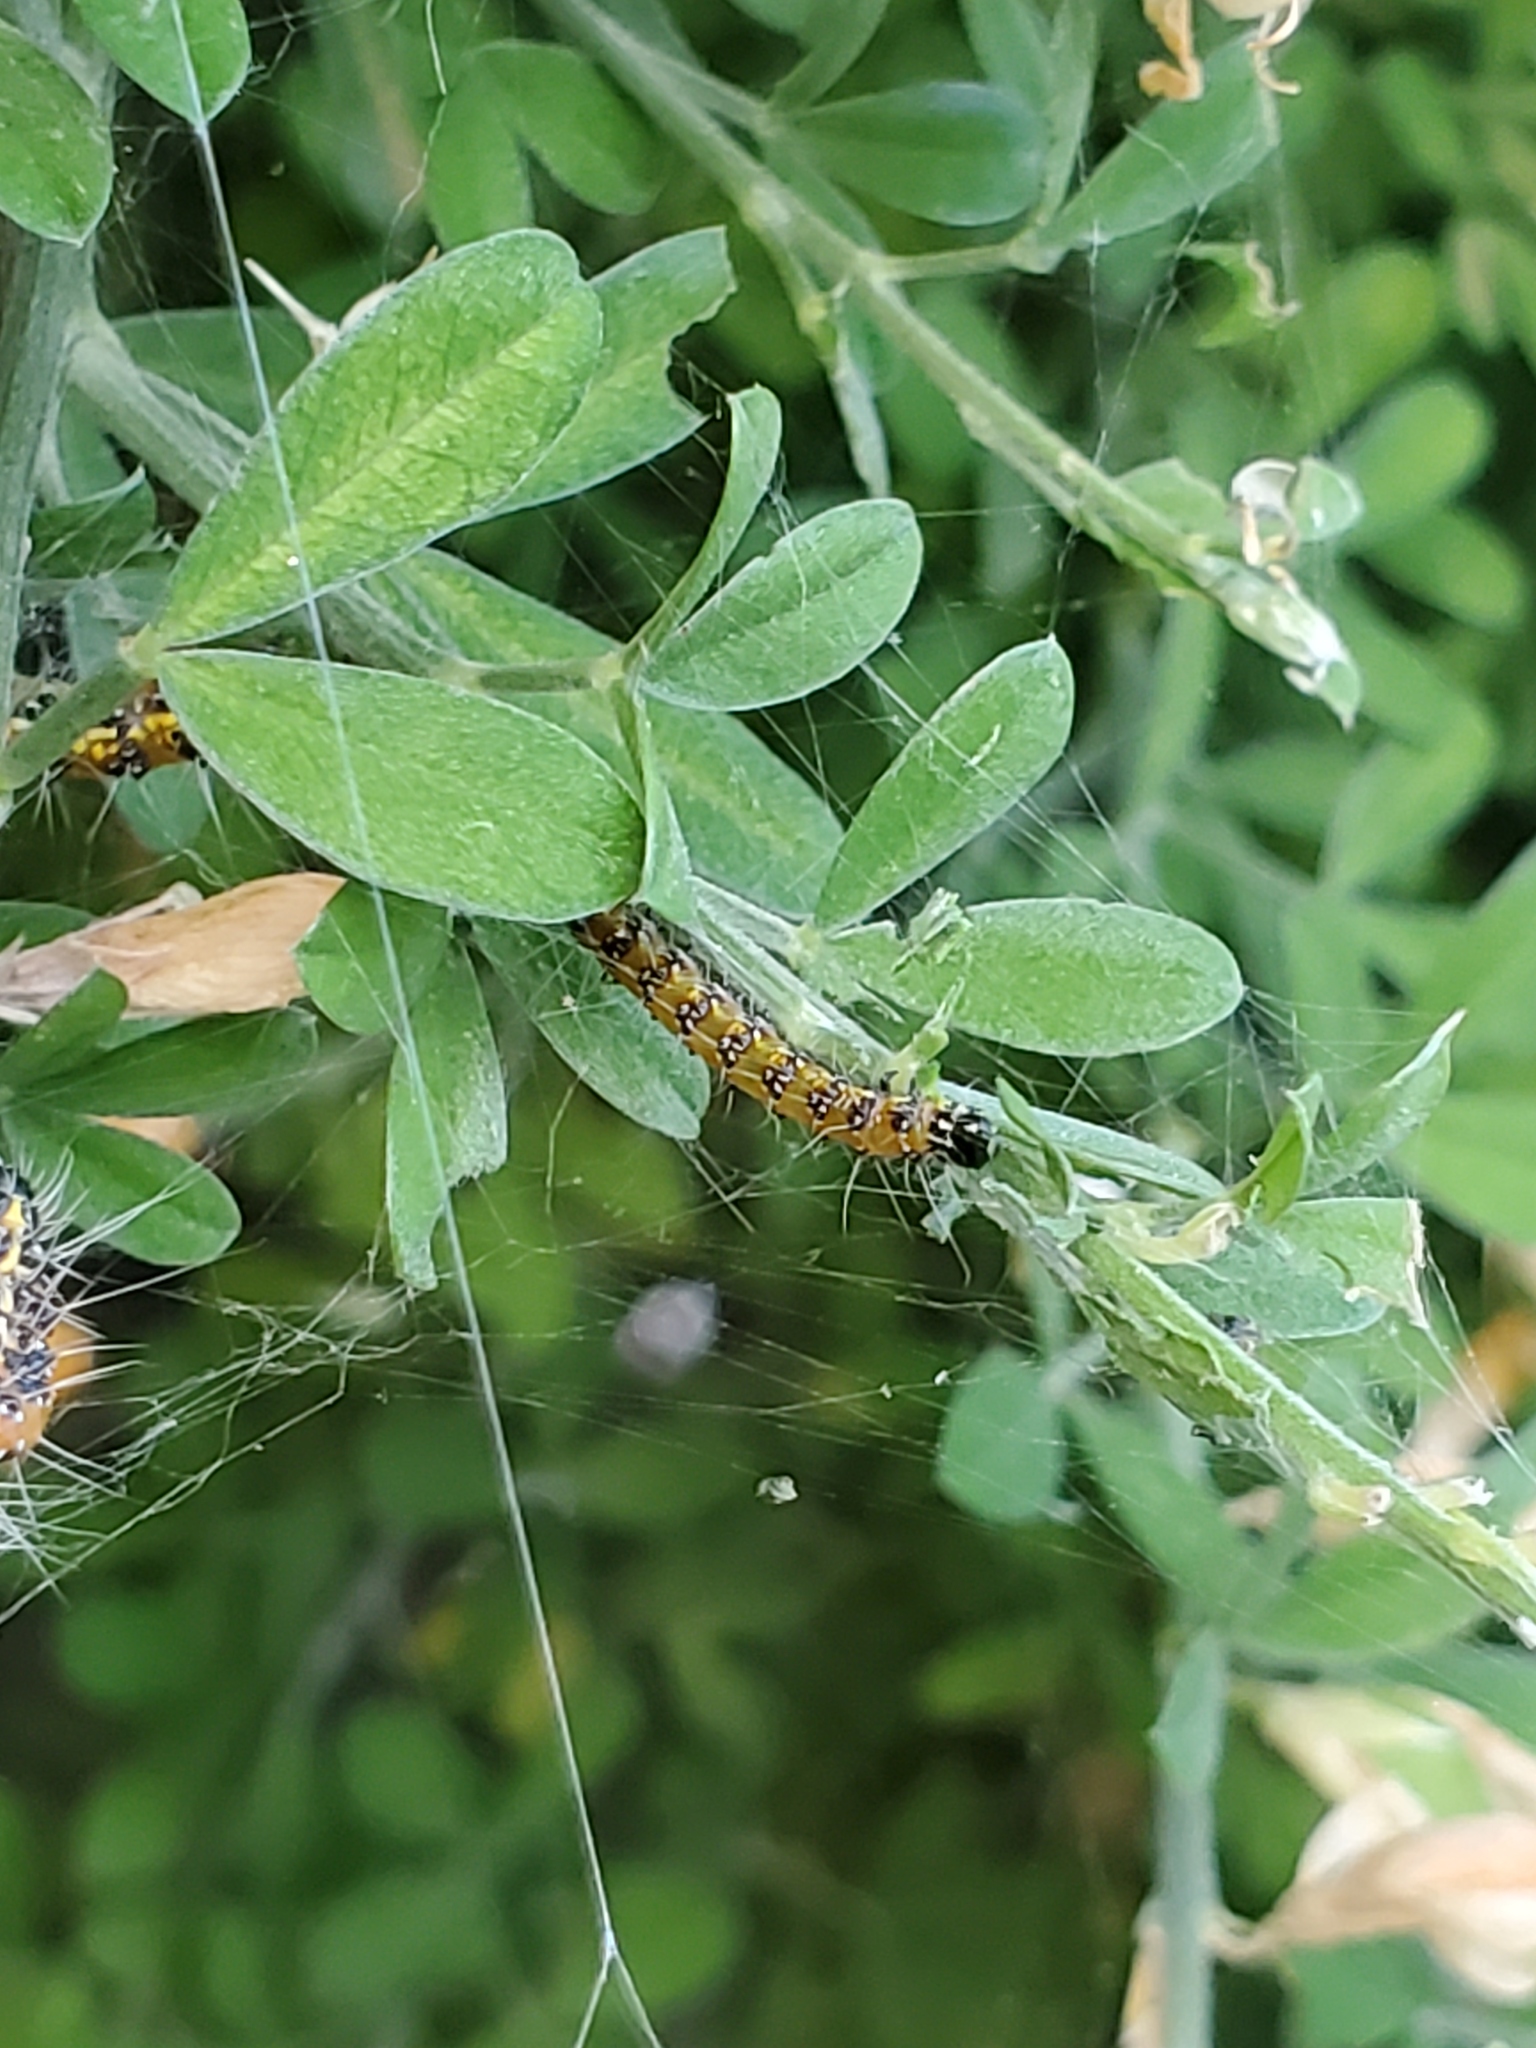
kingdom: Animalia
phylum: Arthropoda
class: Insecta
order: Lepidoptera
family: Crambidae
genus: Uresiphita
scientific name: Uresiphita reversalis
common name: Genista broom moth
